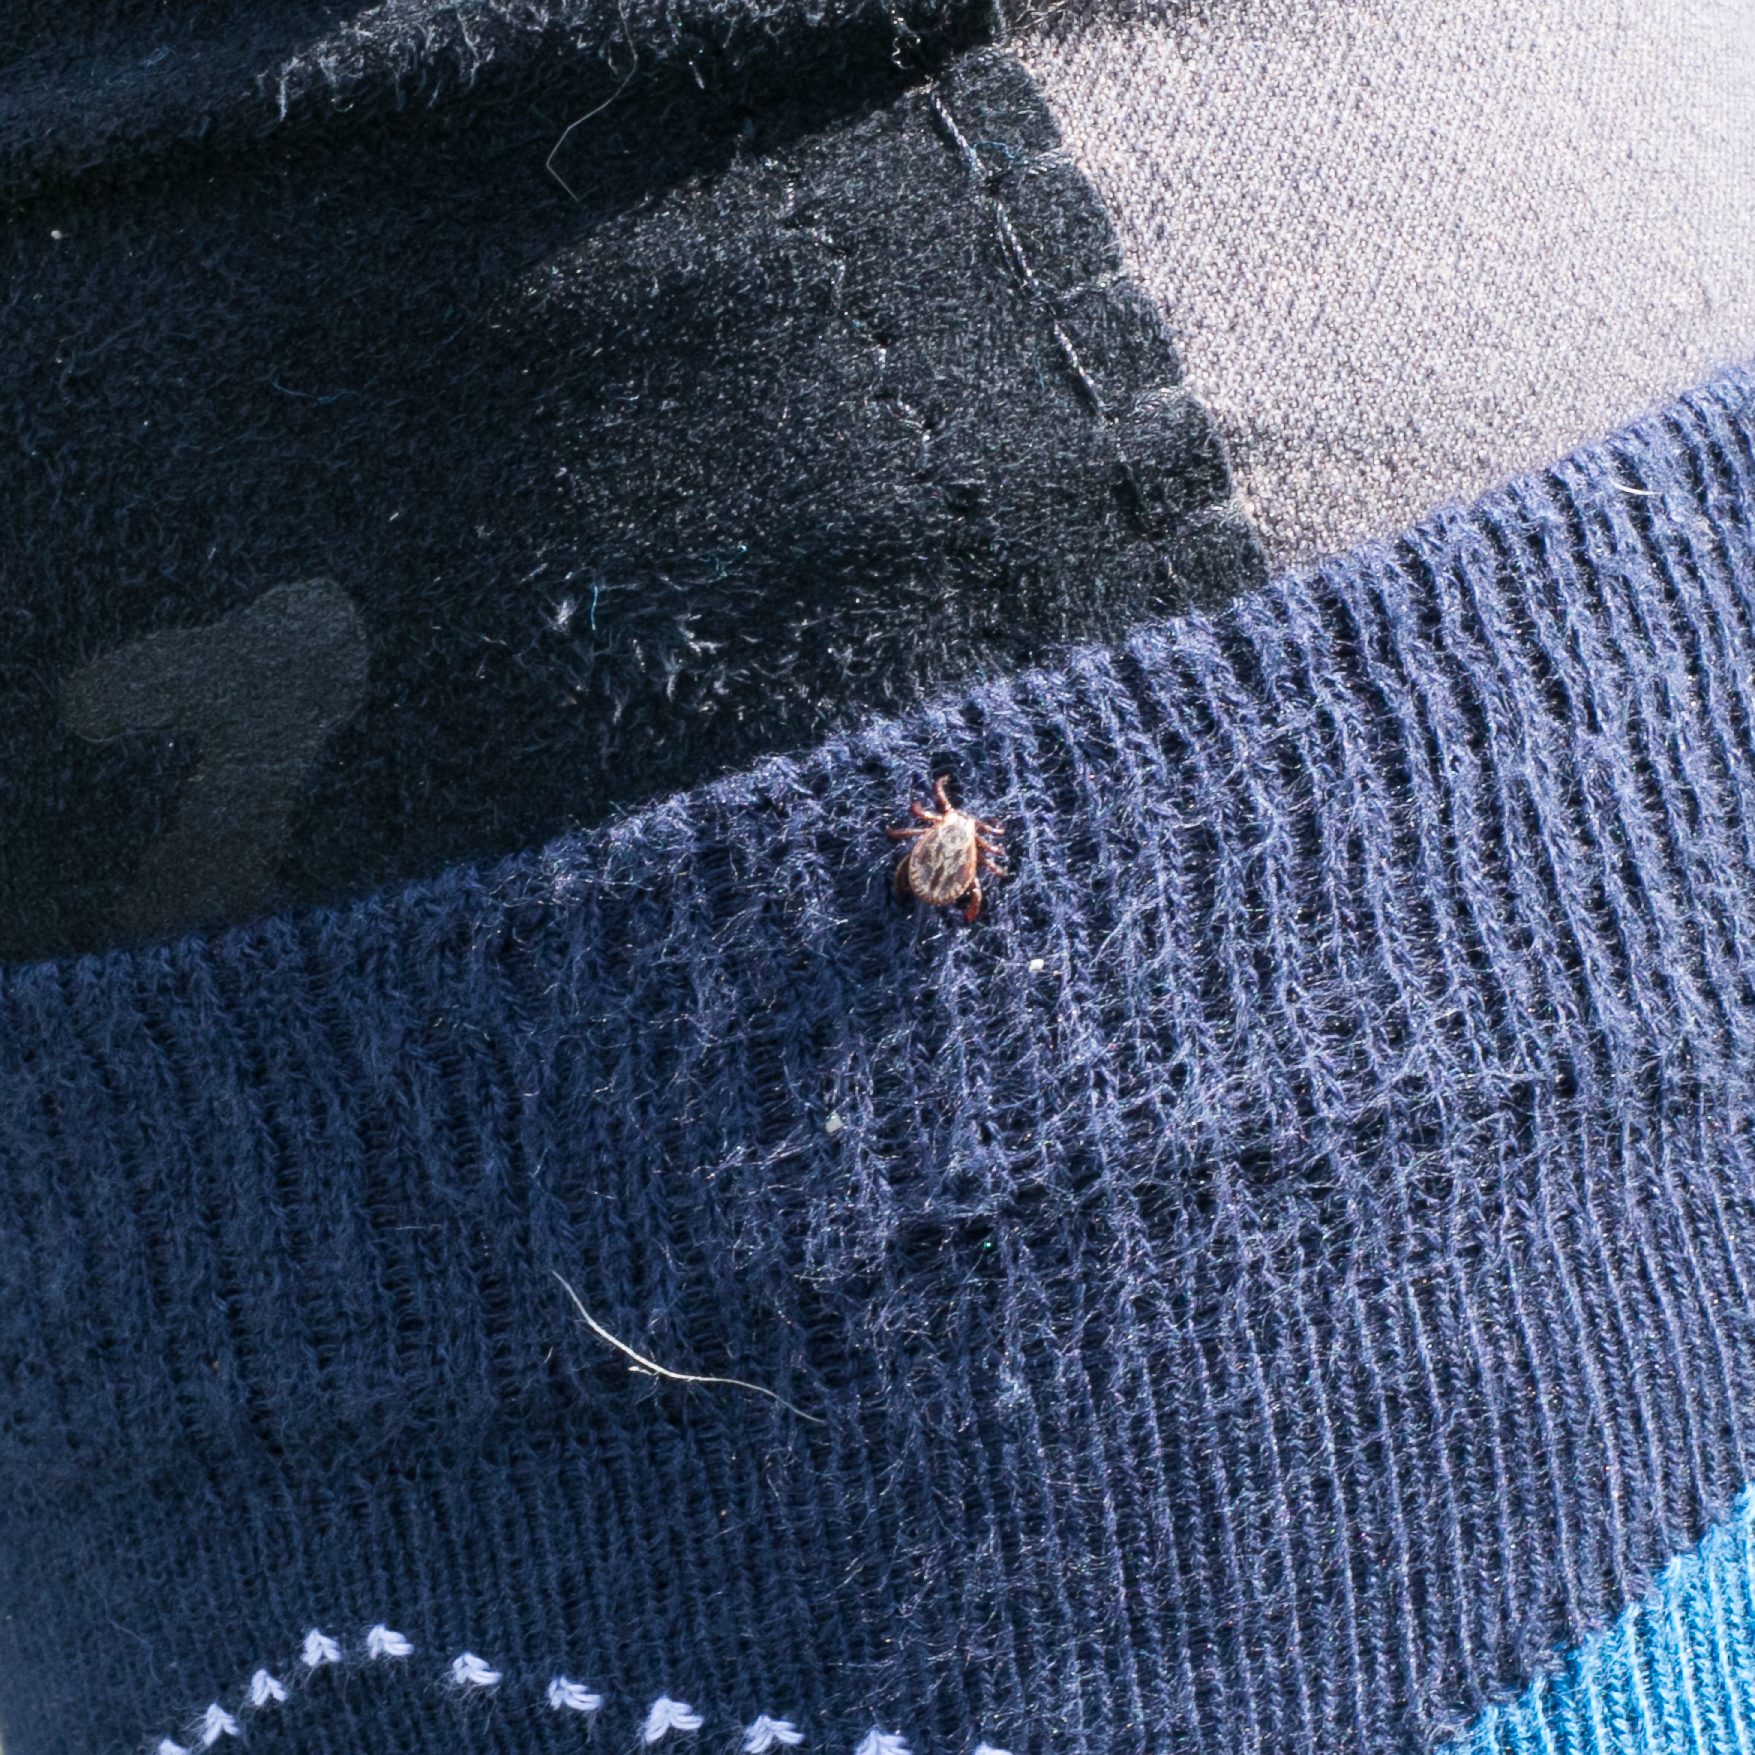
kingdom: Animalia
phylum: Arthropoda
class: Arachnida
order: Ixodida
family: Ixodidae
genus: Dermacentor
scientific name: Dermacentor
